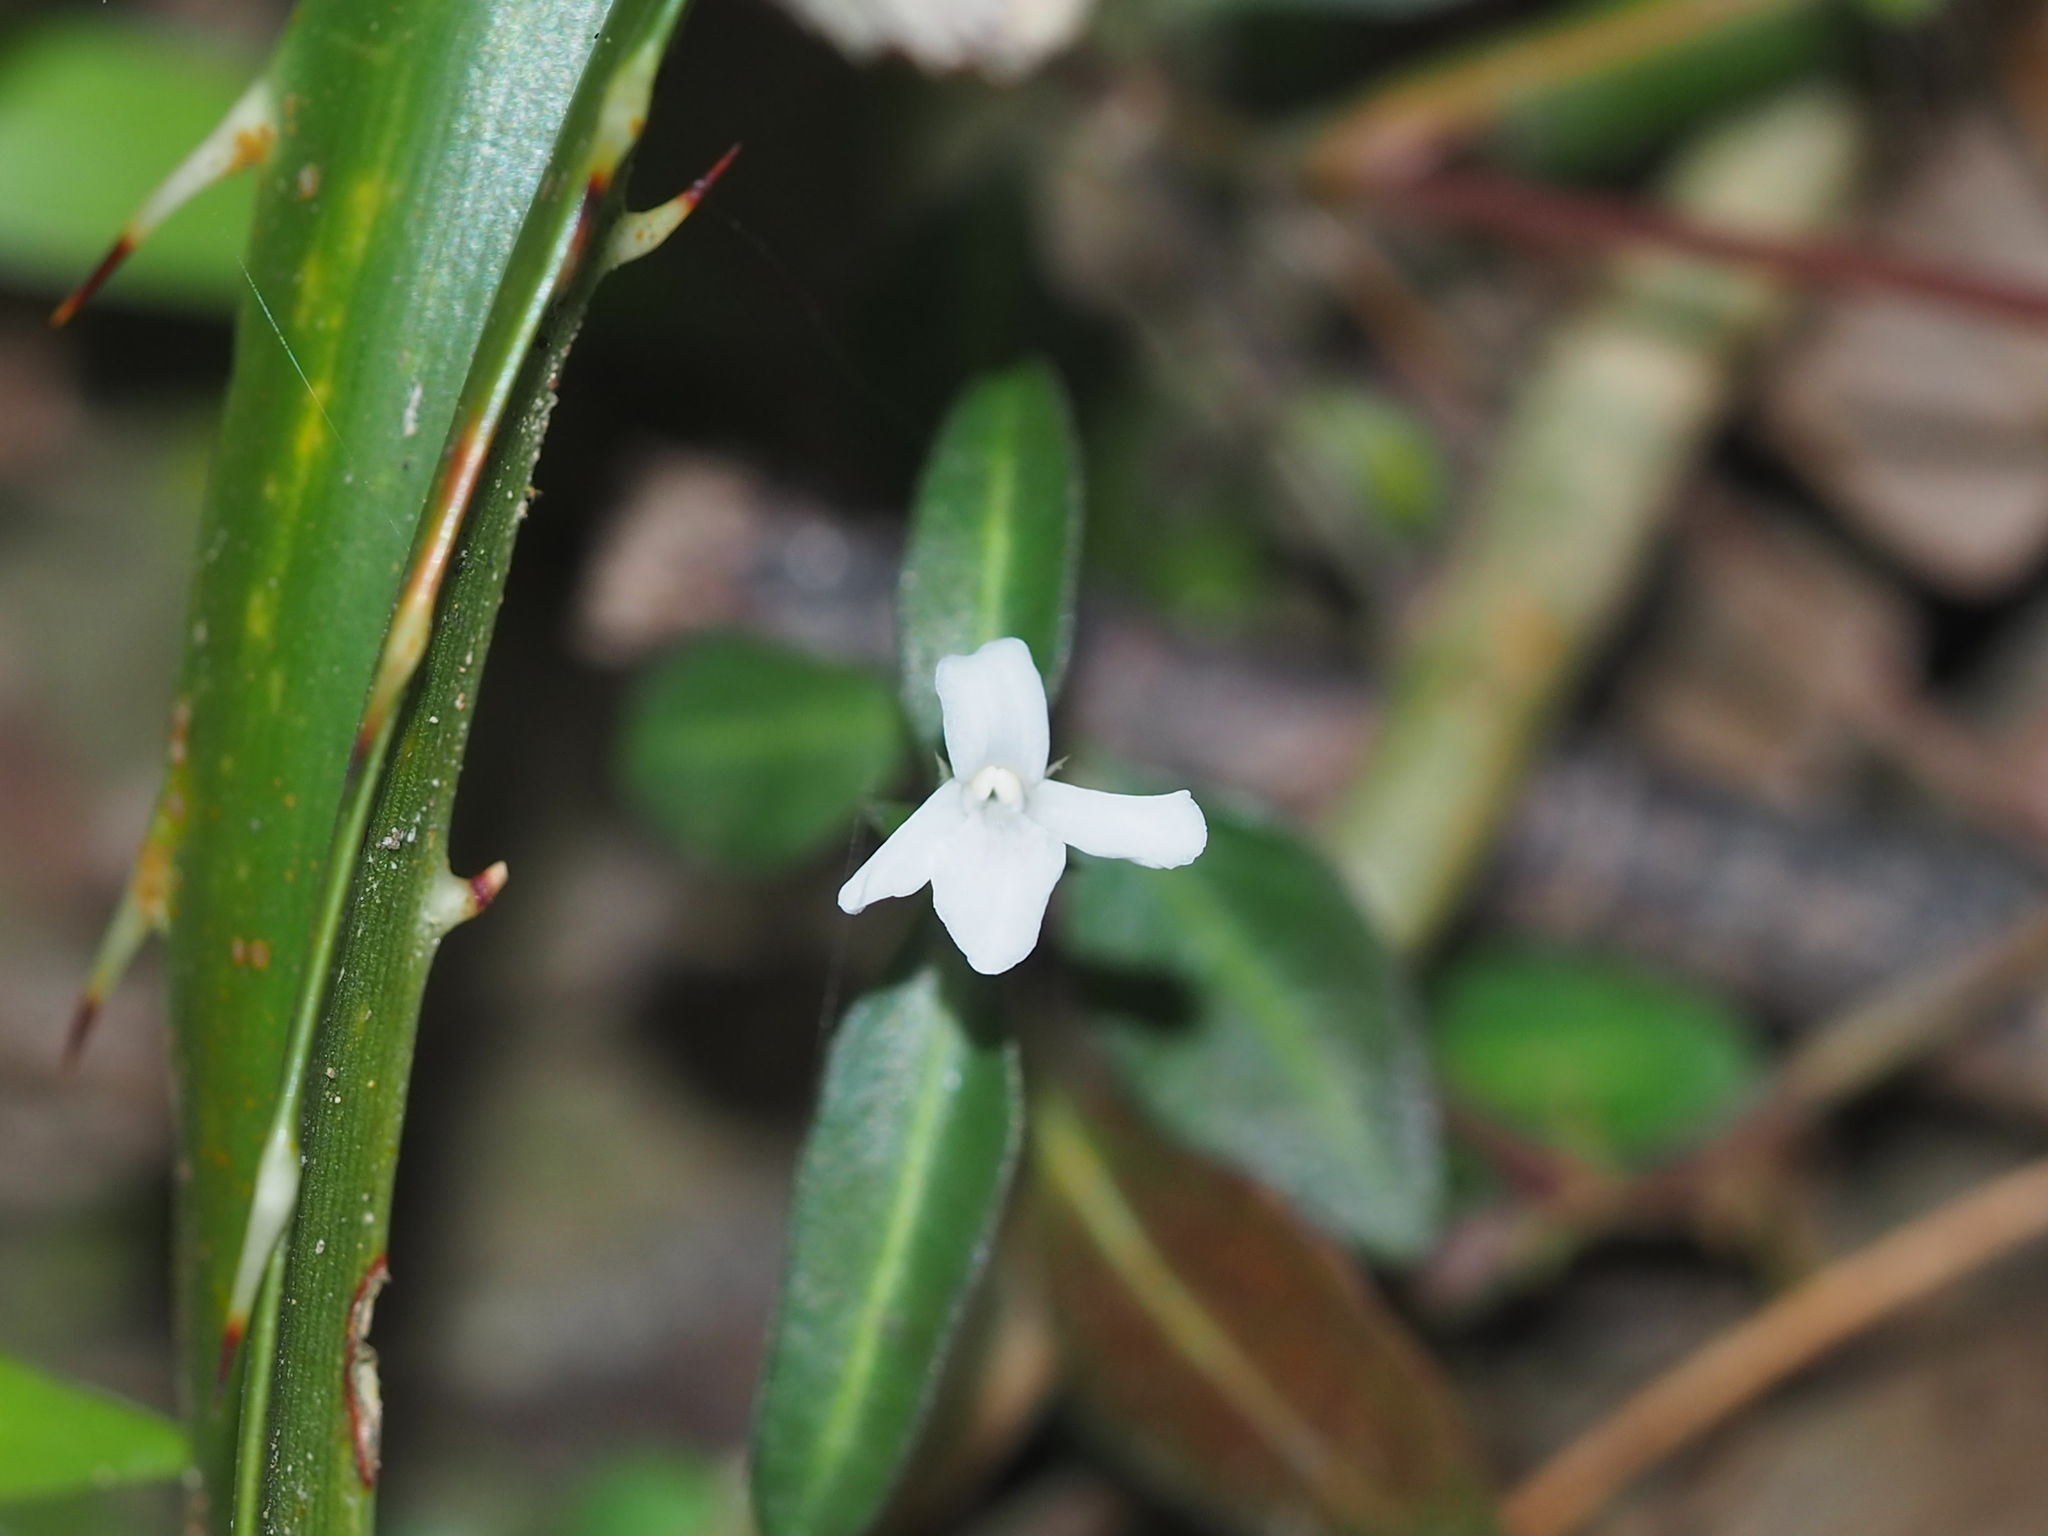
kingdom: Plantae
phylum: Tracheophyta
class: Magnoliopsida
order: Lamiales
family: Acanthaceae
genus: Lepidagathis
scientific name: Lepidagathis stenophylla
